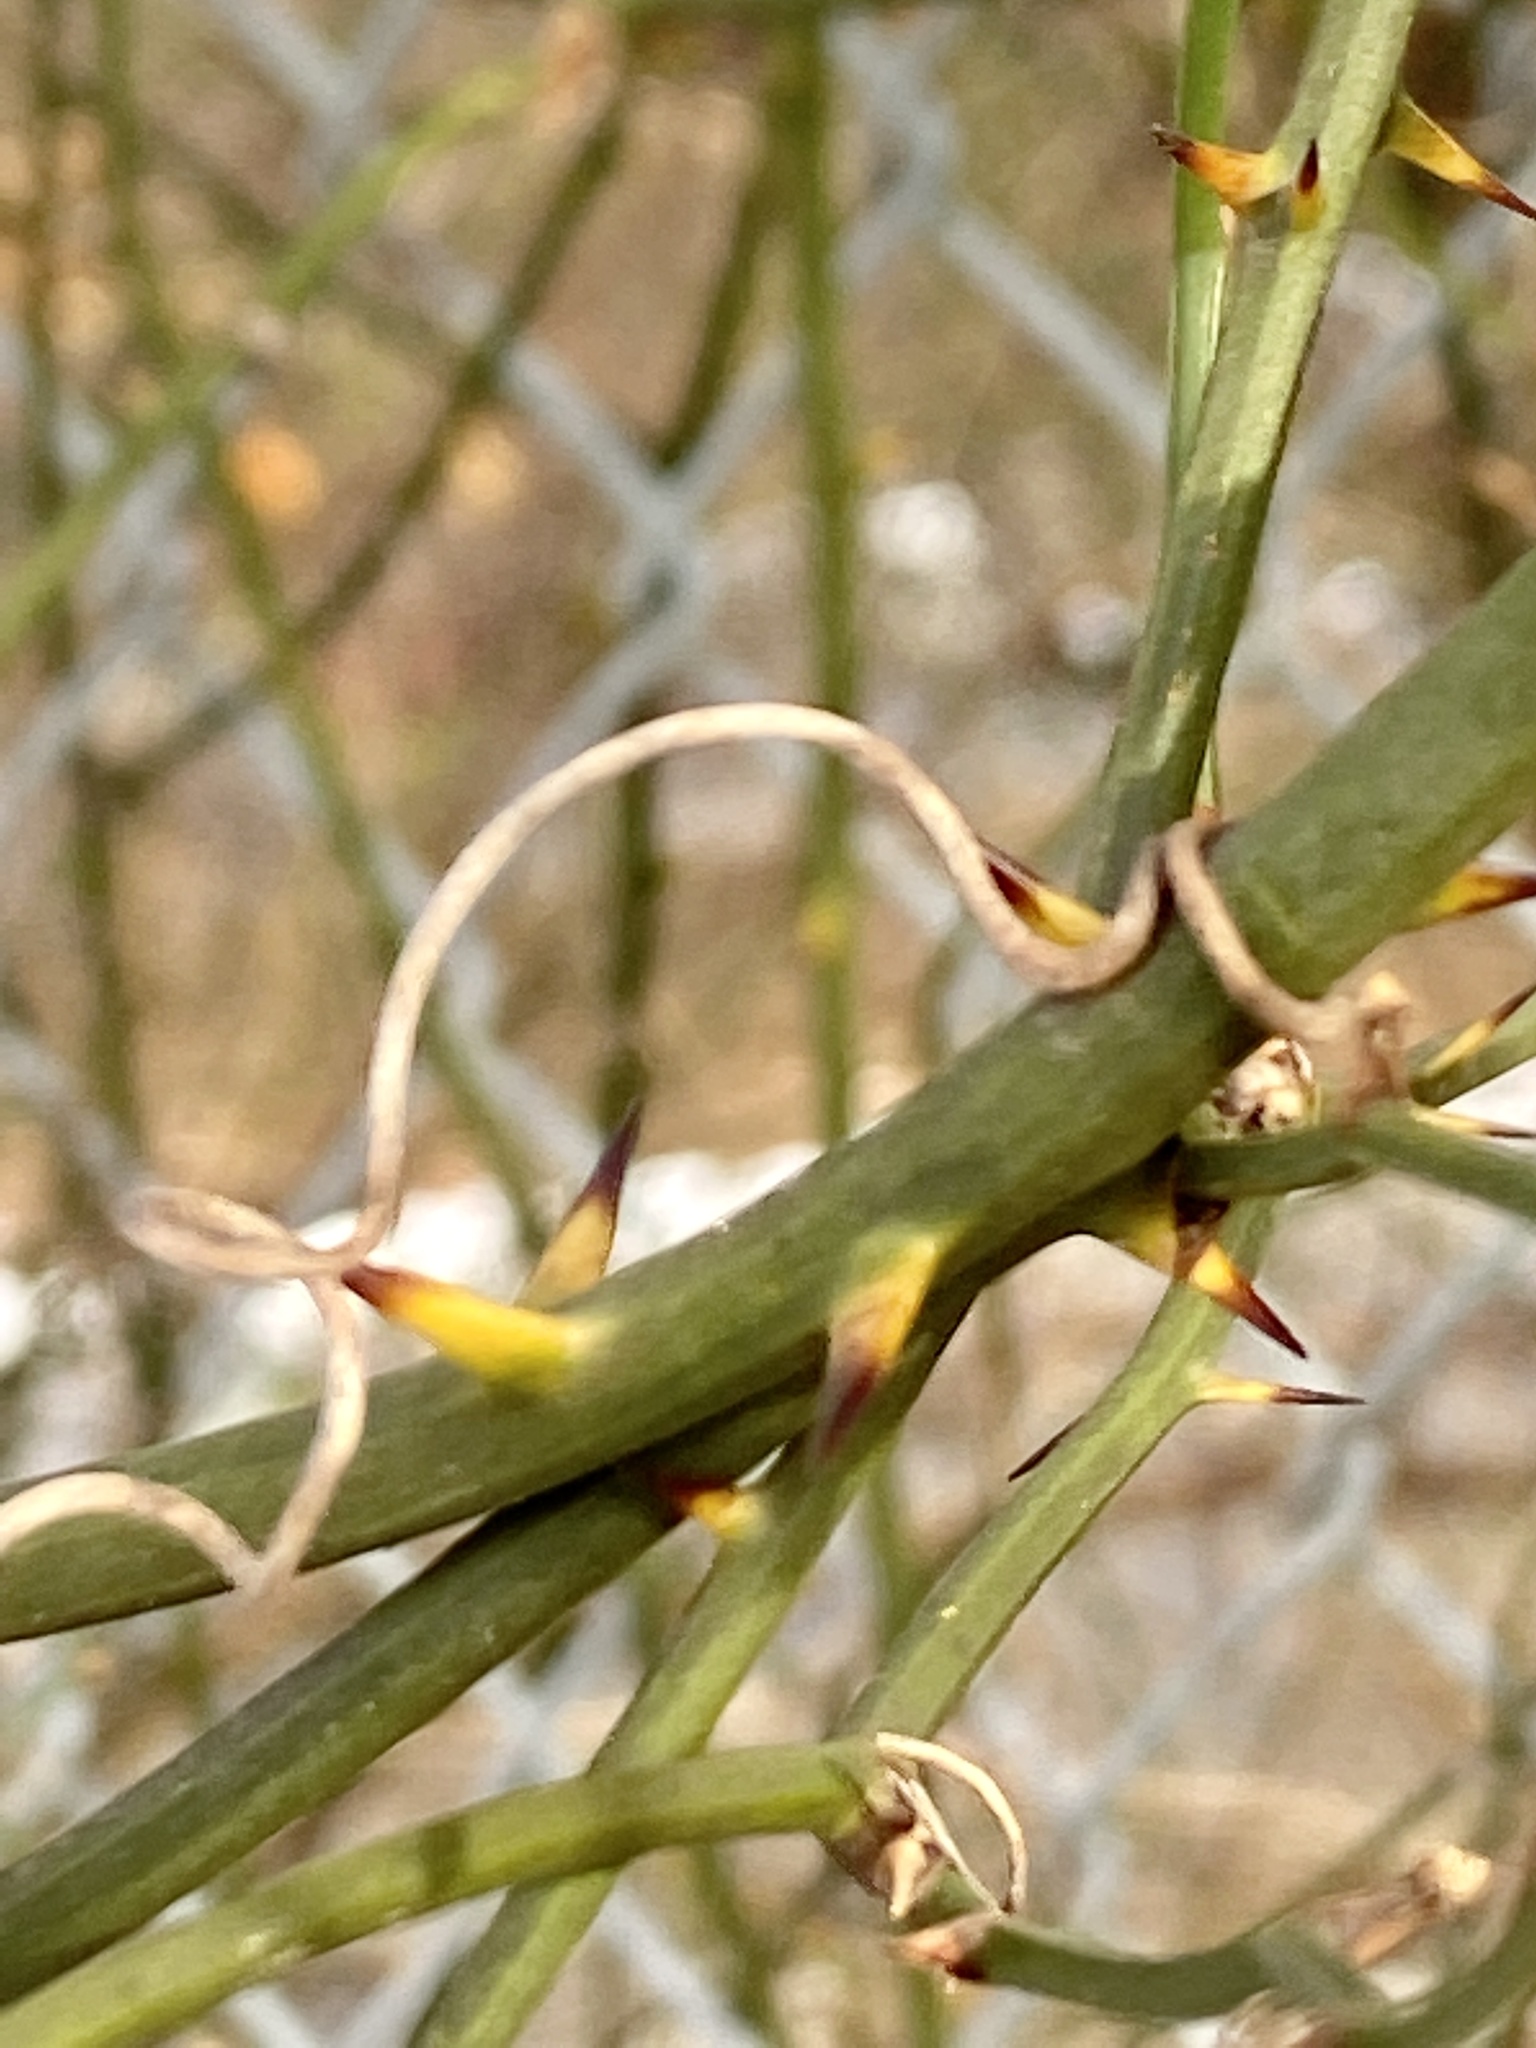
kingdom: Plantae
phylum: Tracheophyta
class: Liliopsida
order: Liliales
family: Smilacaceae
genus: Smilax
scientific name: Smilax rotundifolia
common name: Bullbriar
